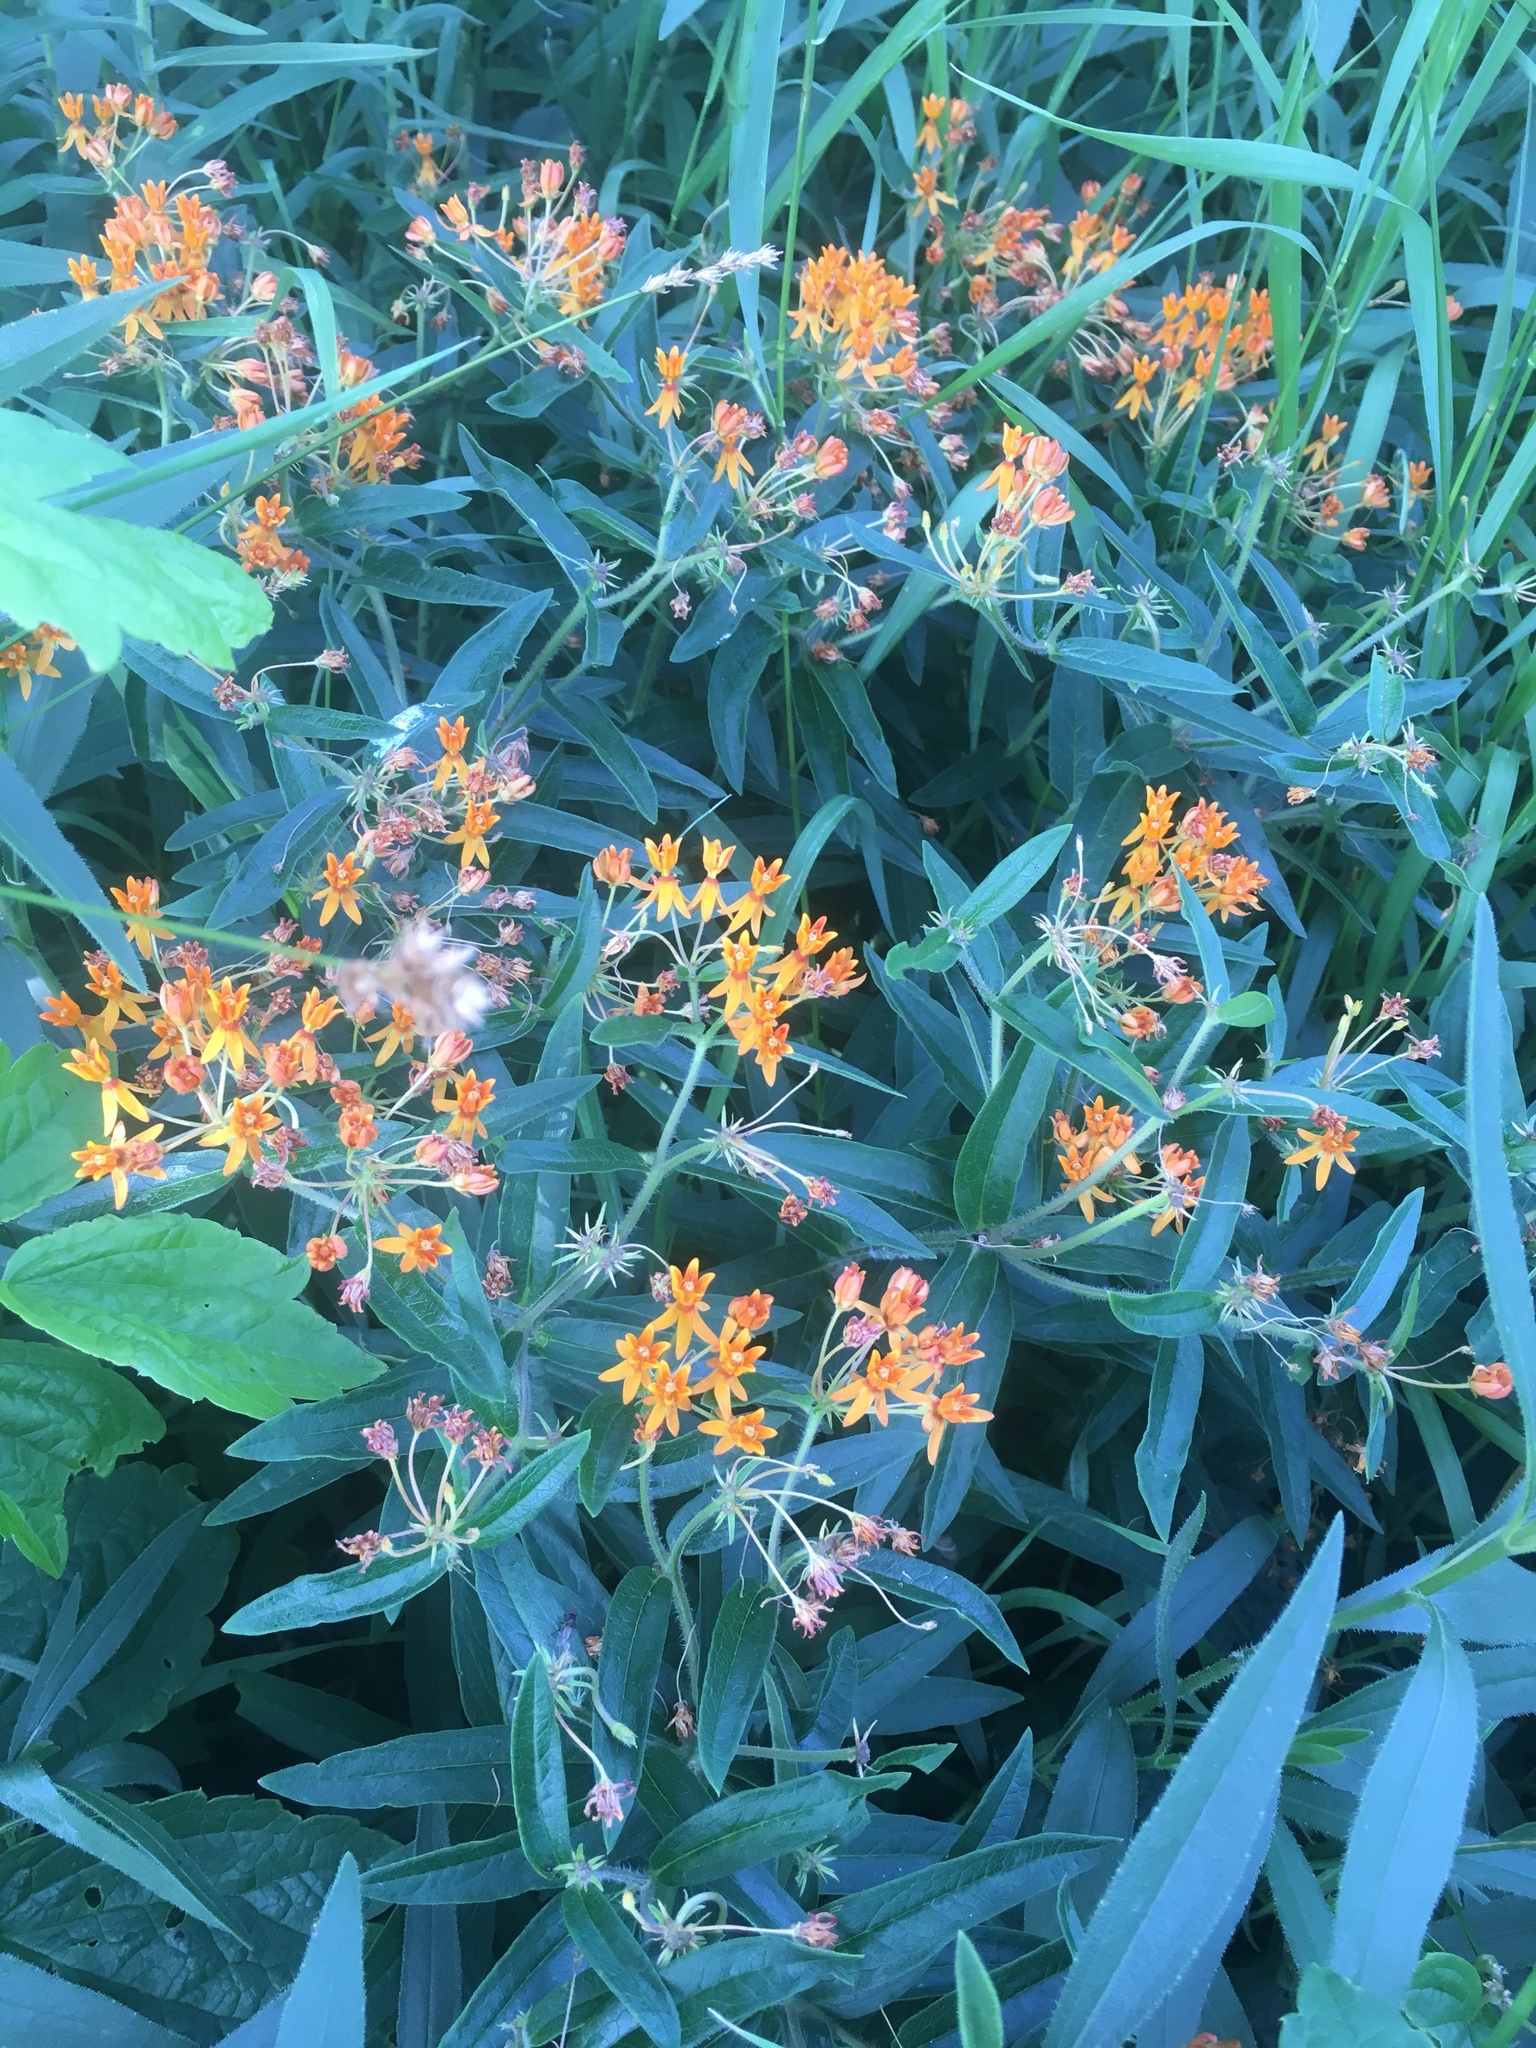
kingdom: Plantae
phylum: Tracheophyta
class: Magnoliopsida
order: Gentianales
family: Apocynaceae
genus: Asclepias
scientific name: Asclepias tuberosa
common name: Butterfly milkweed
